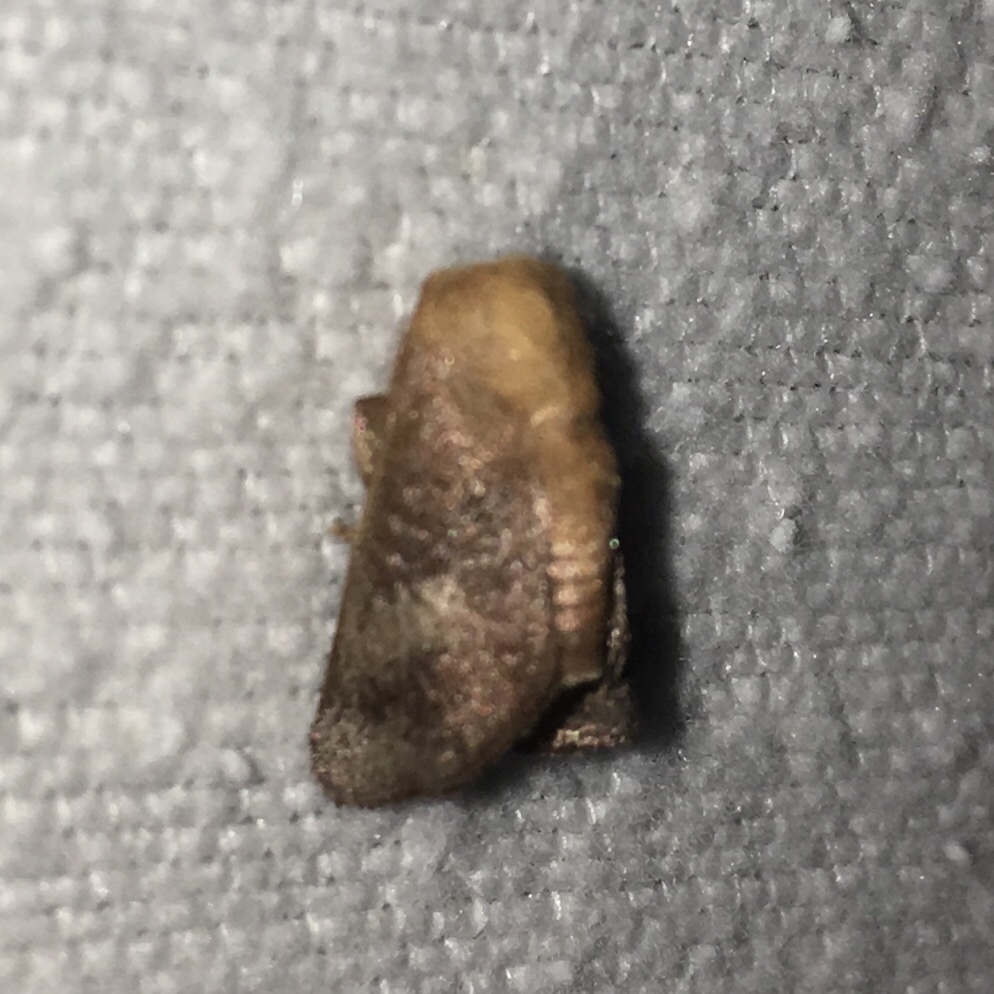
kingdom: Animalia
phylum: Arthropoda
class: Insecta
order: Lepidoptera
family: Limacodidae
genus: Isa
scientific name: Isa textula
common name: Crowned slug moth
